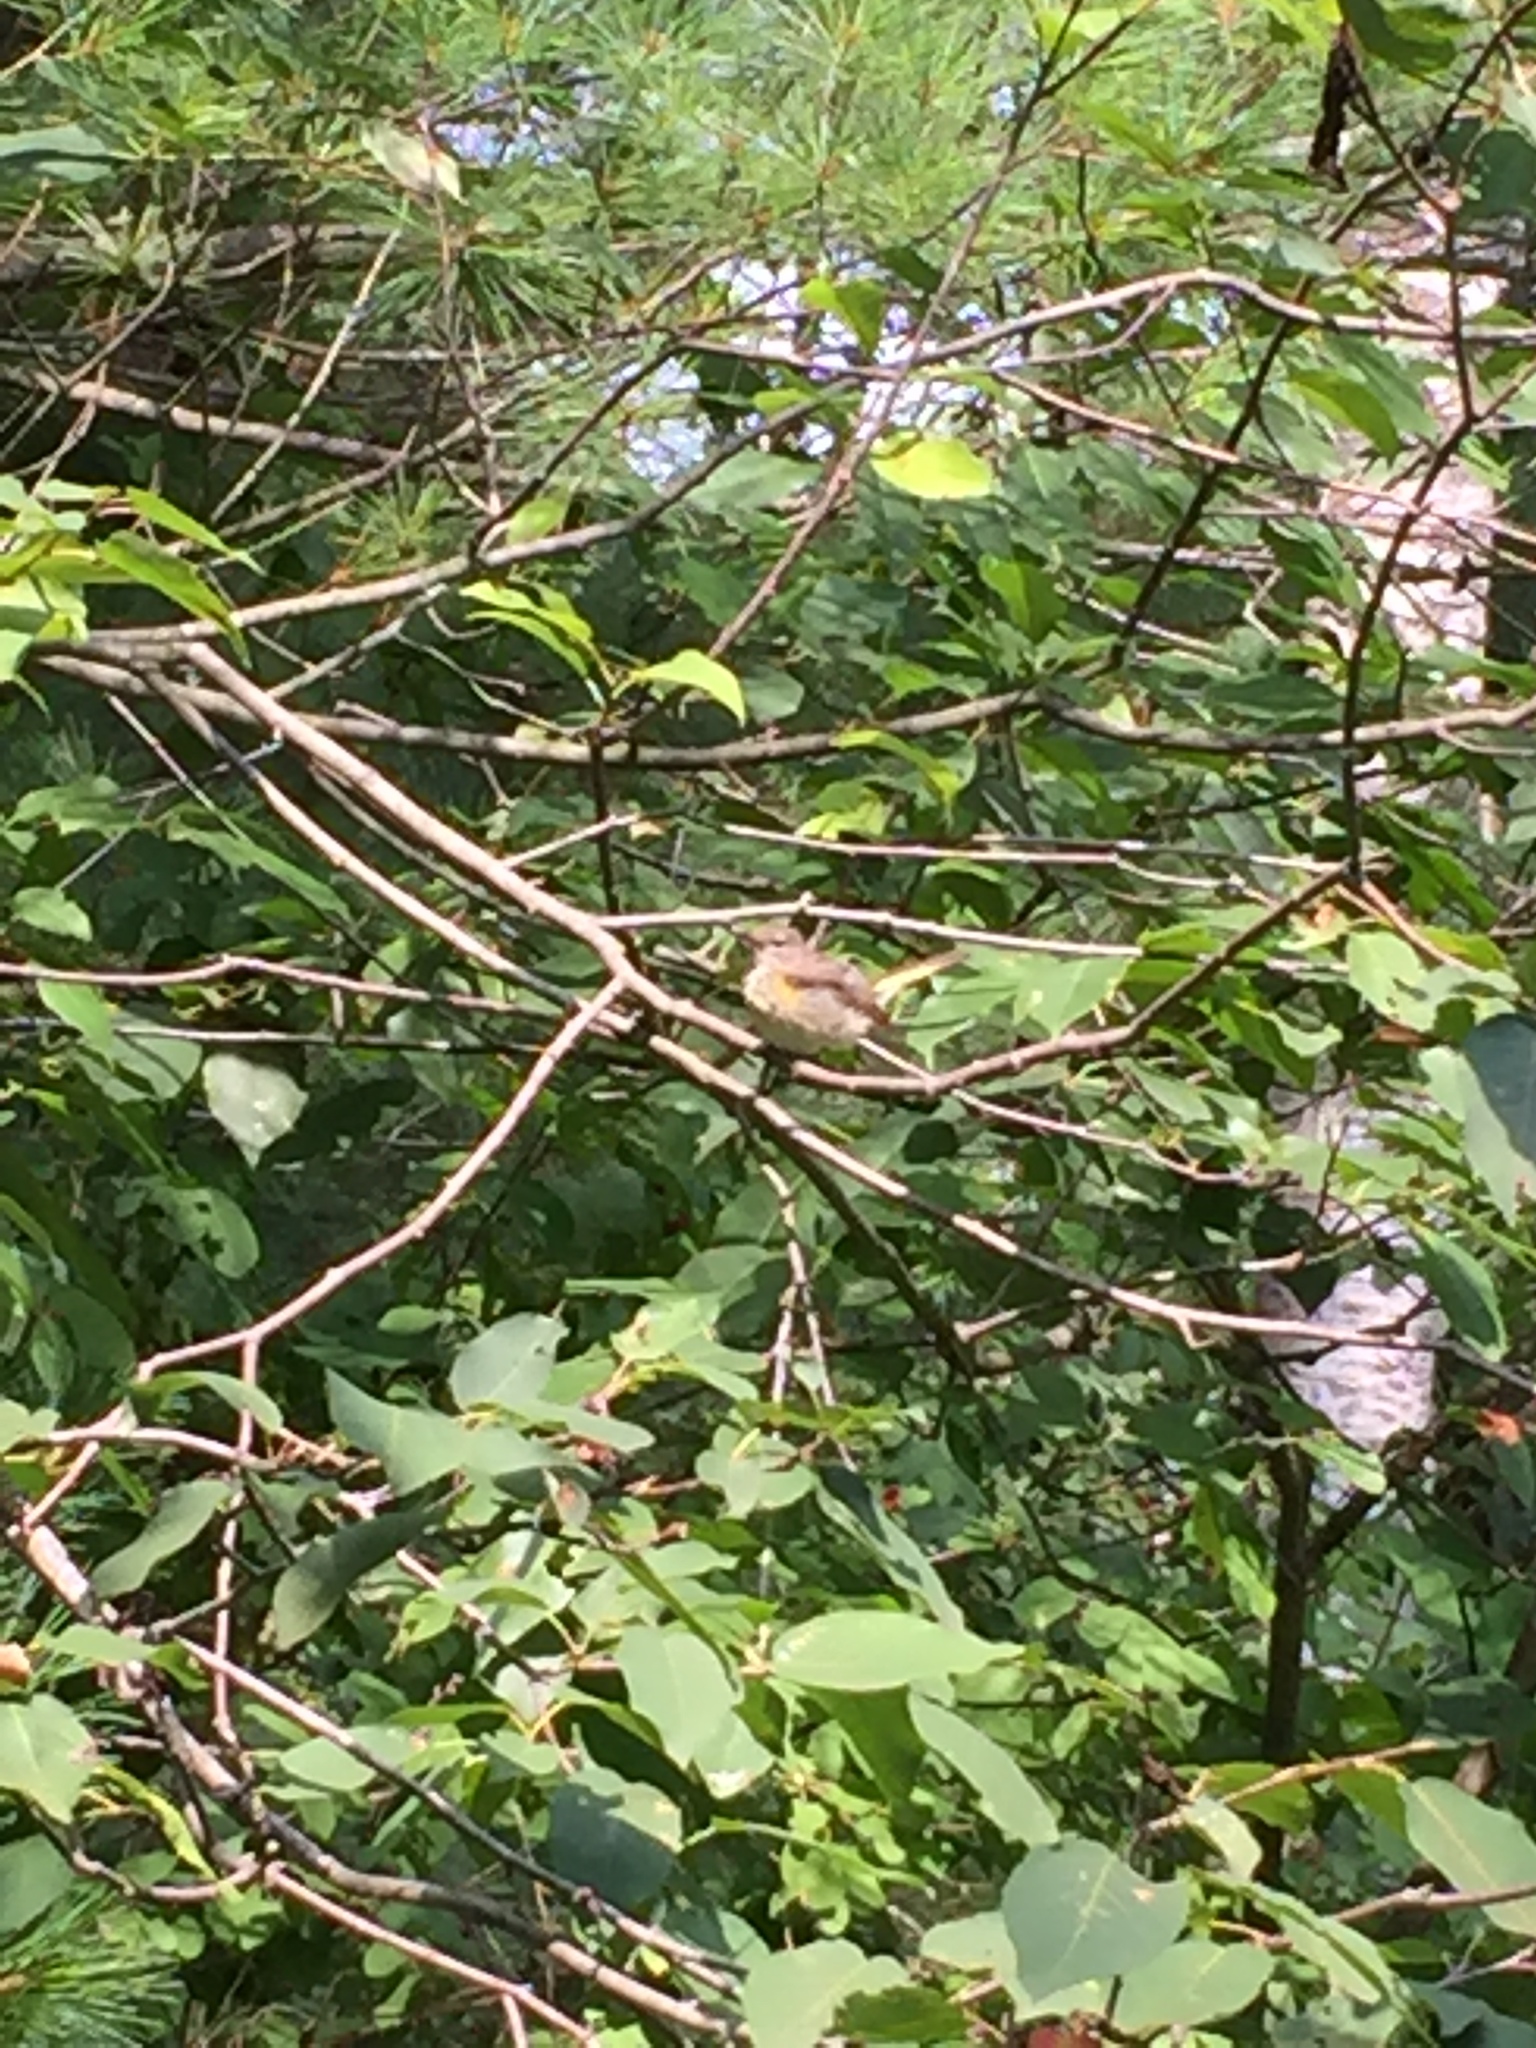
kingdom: Animalia
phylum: Chordata
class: Aves
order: Passeriformes
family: Parulidae
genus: Setophaga
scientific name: Setophaga ruticilla
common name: American redstart
